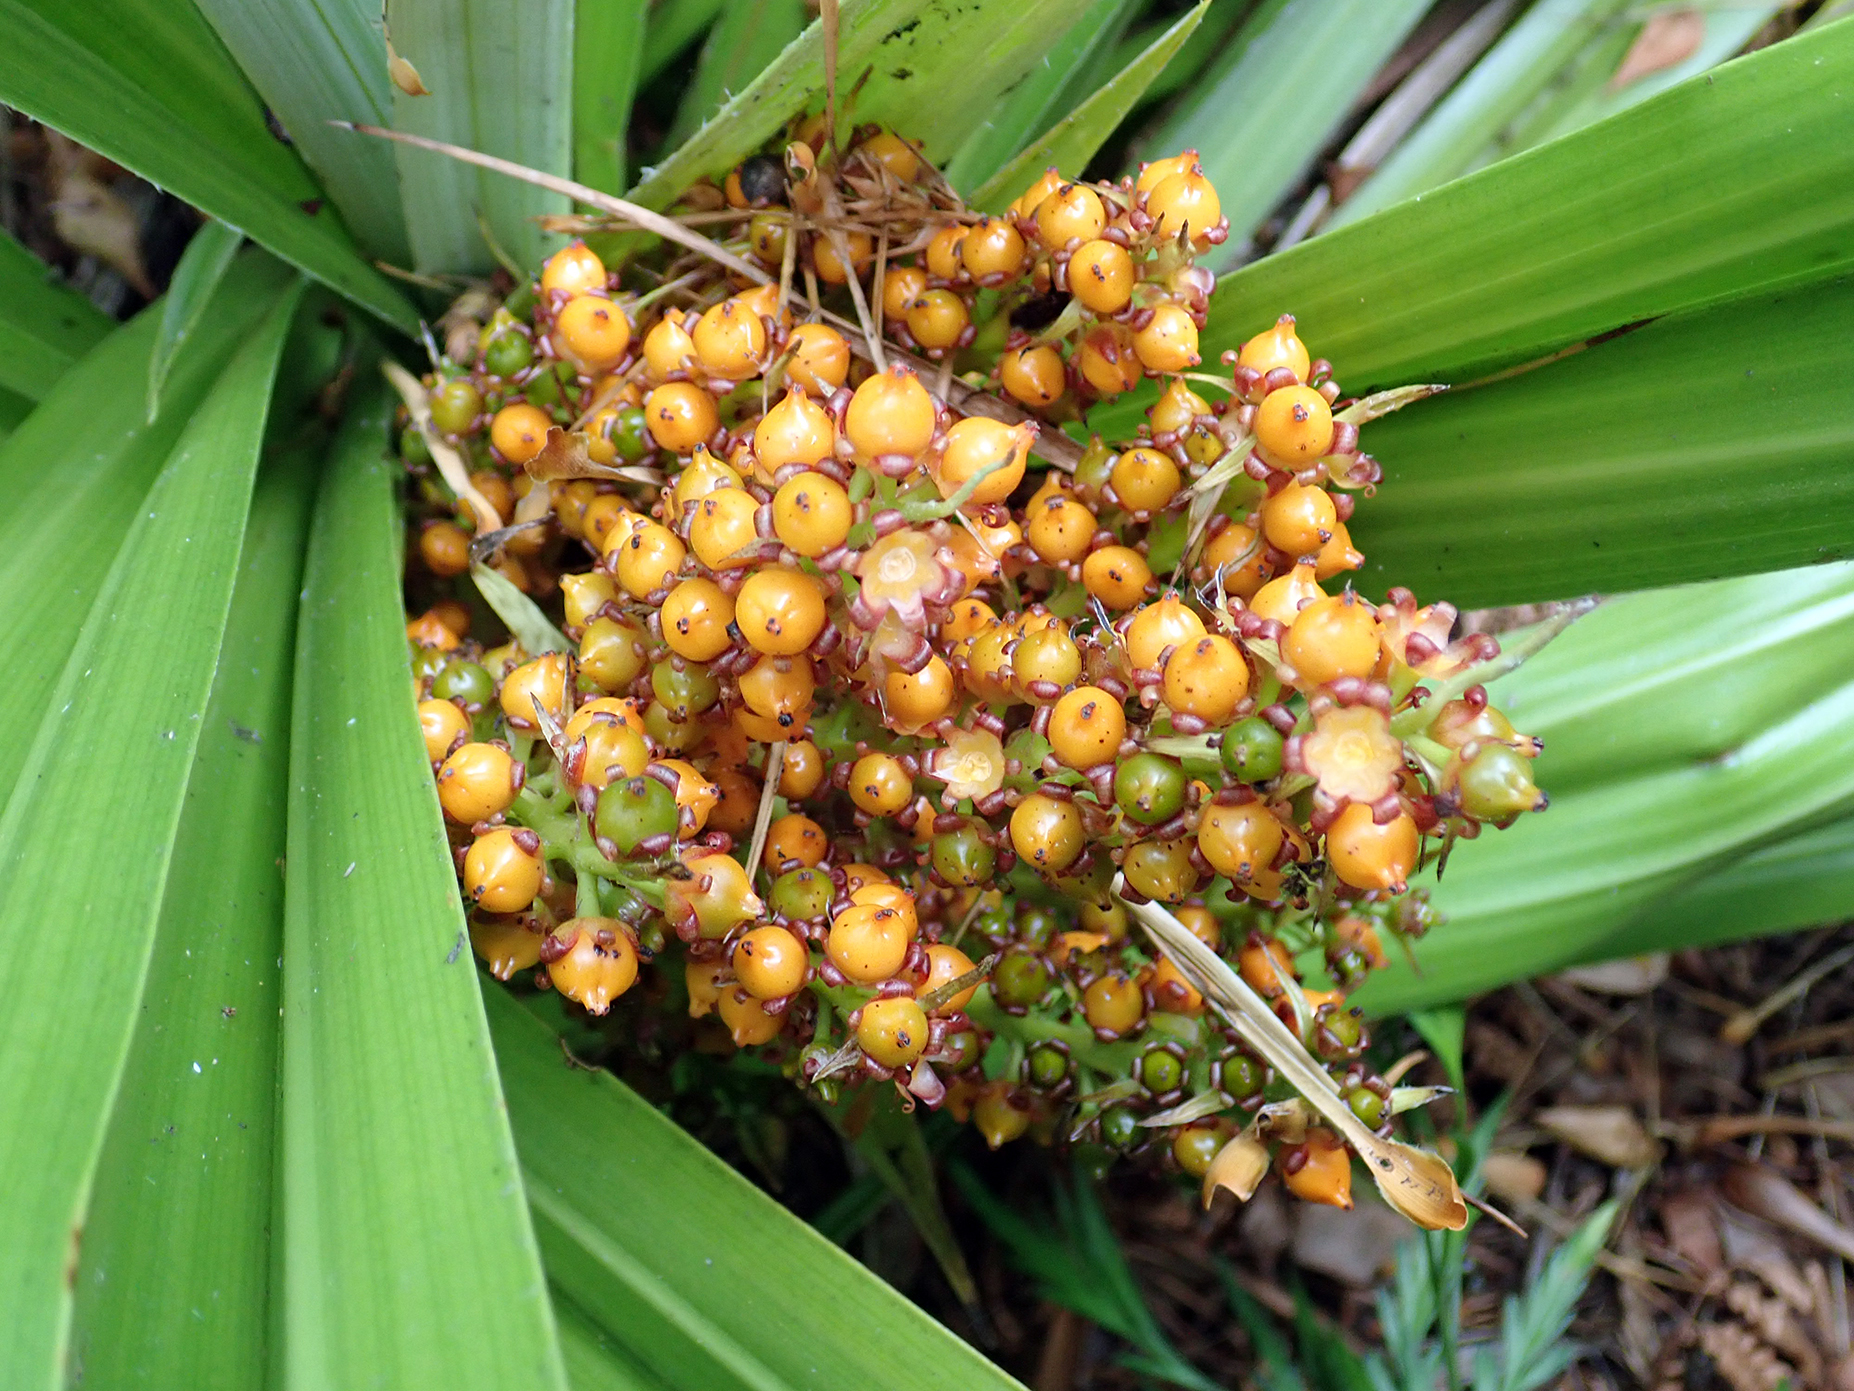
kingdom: Plantae
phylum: Tracheophyta
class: Liliopsida
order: Asparagales
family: Asteliaceae
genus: Astelia
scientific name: Astelia chathamica
